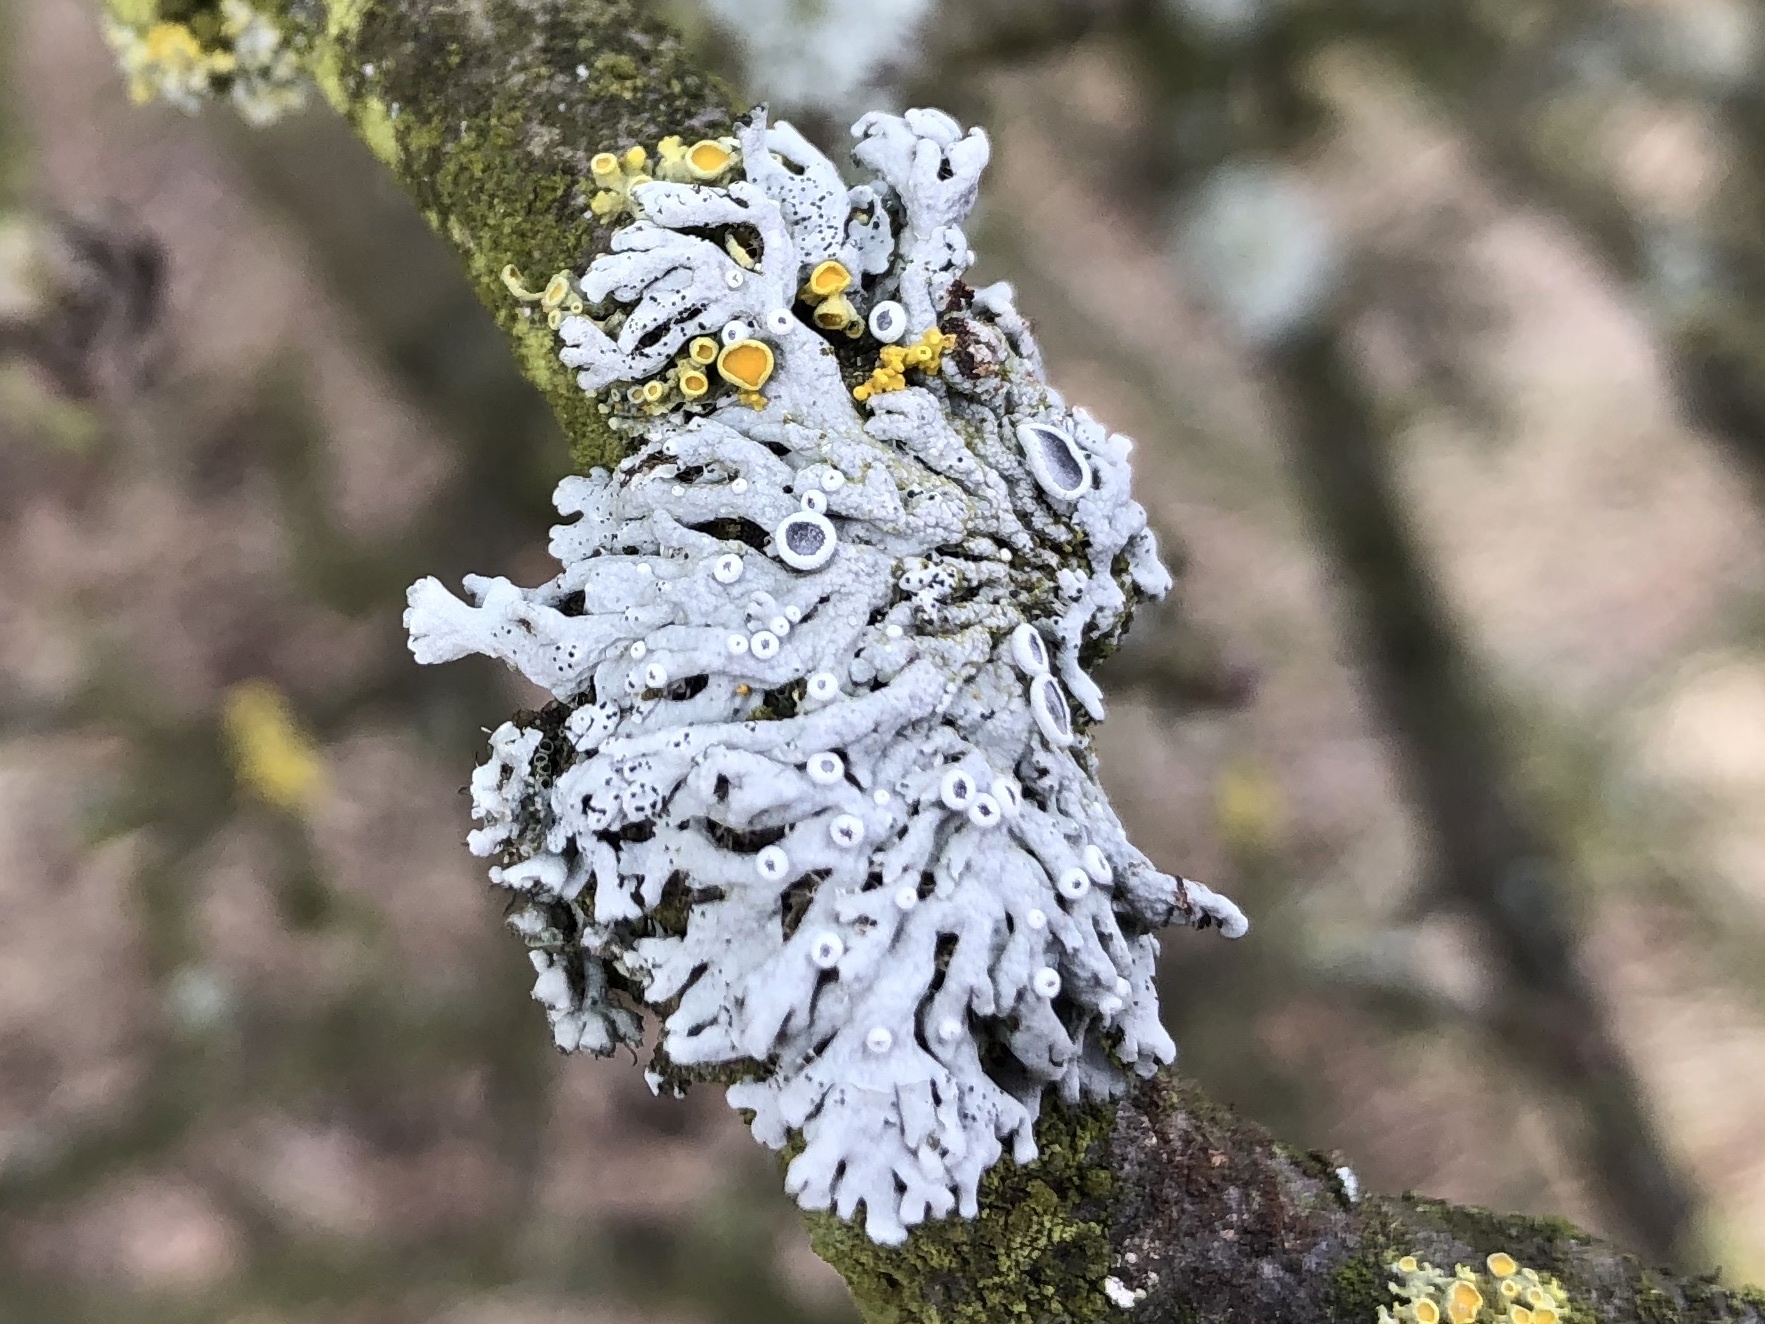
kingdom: Fungi
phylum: Ascomycota
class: Lecanoromycetes
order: Caliciales
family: Physciaceae
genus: Physcia
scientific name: Physcia stellaris
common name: Star rosette lichen
